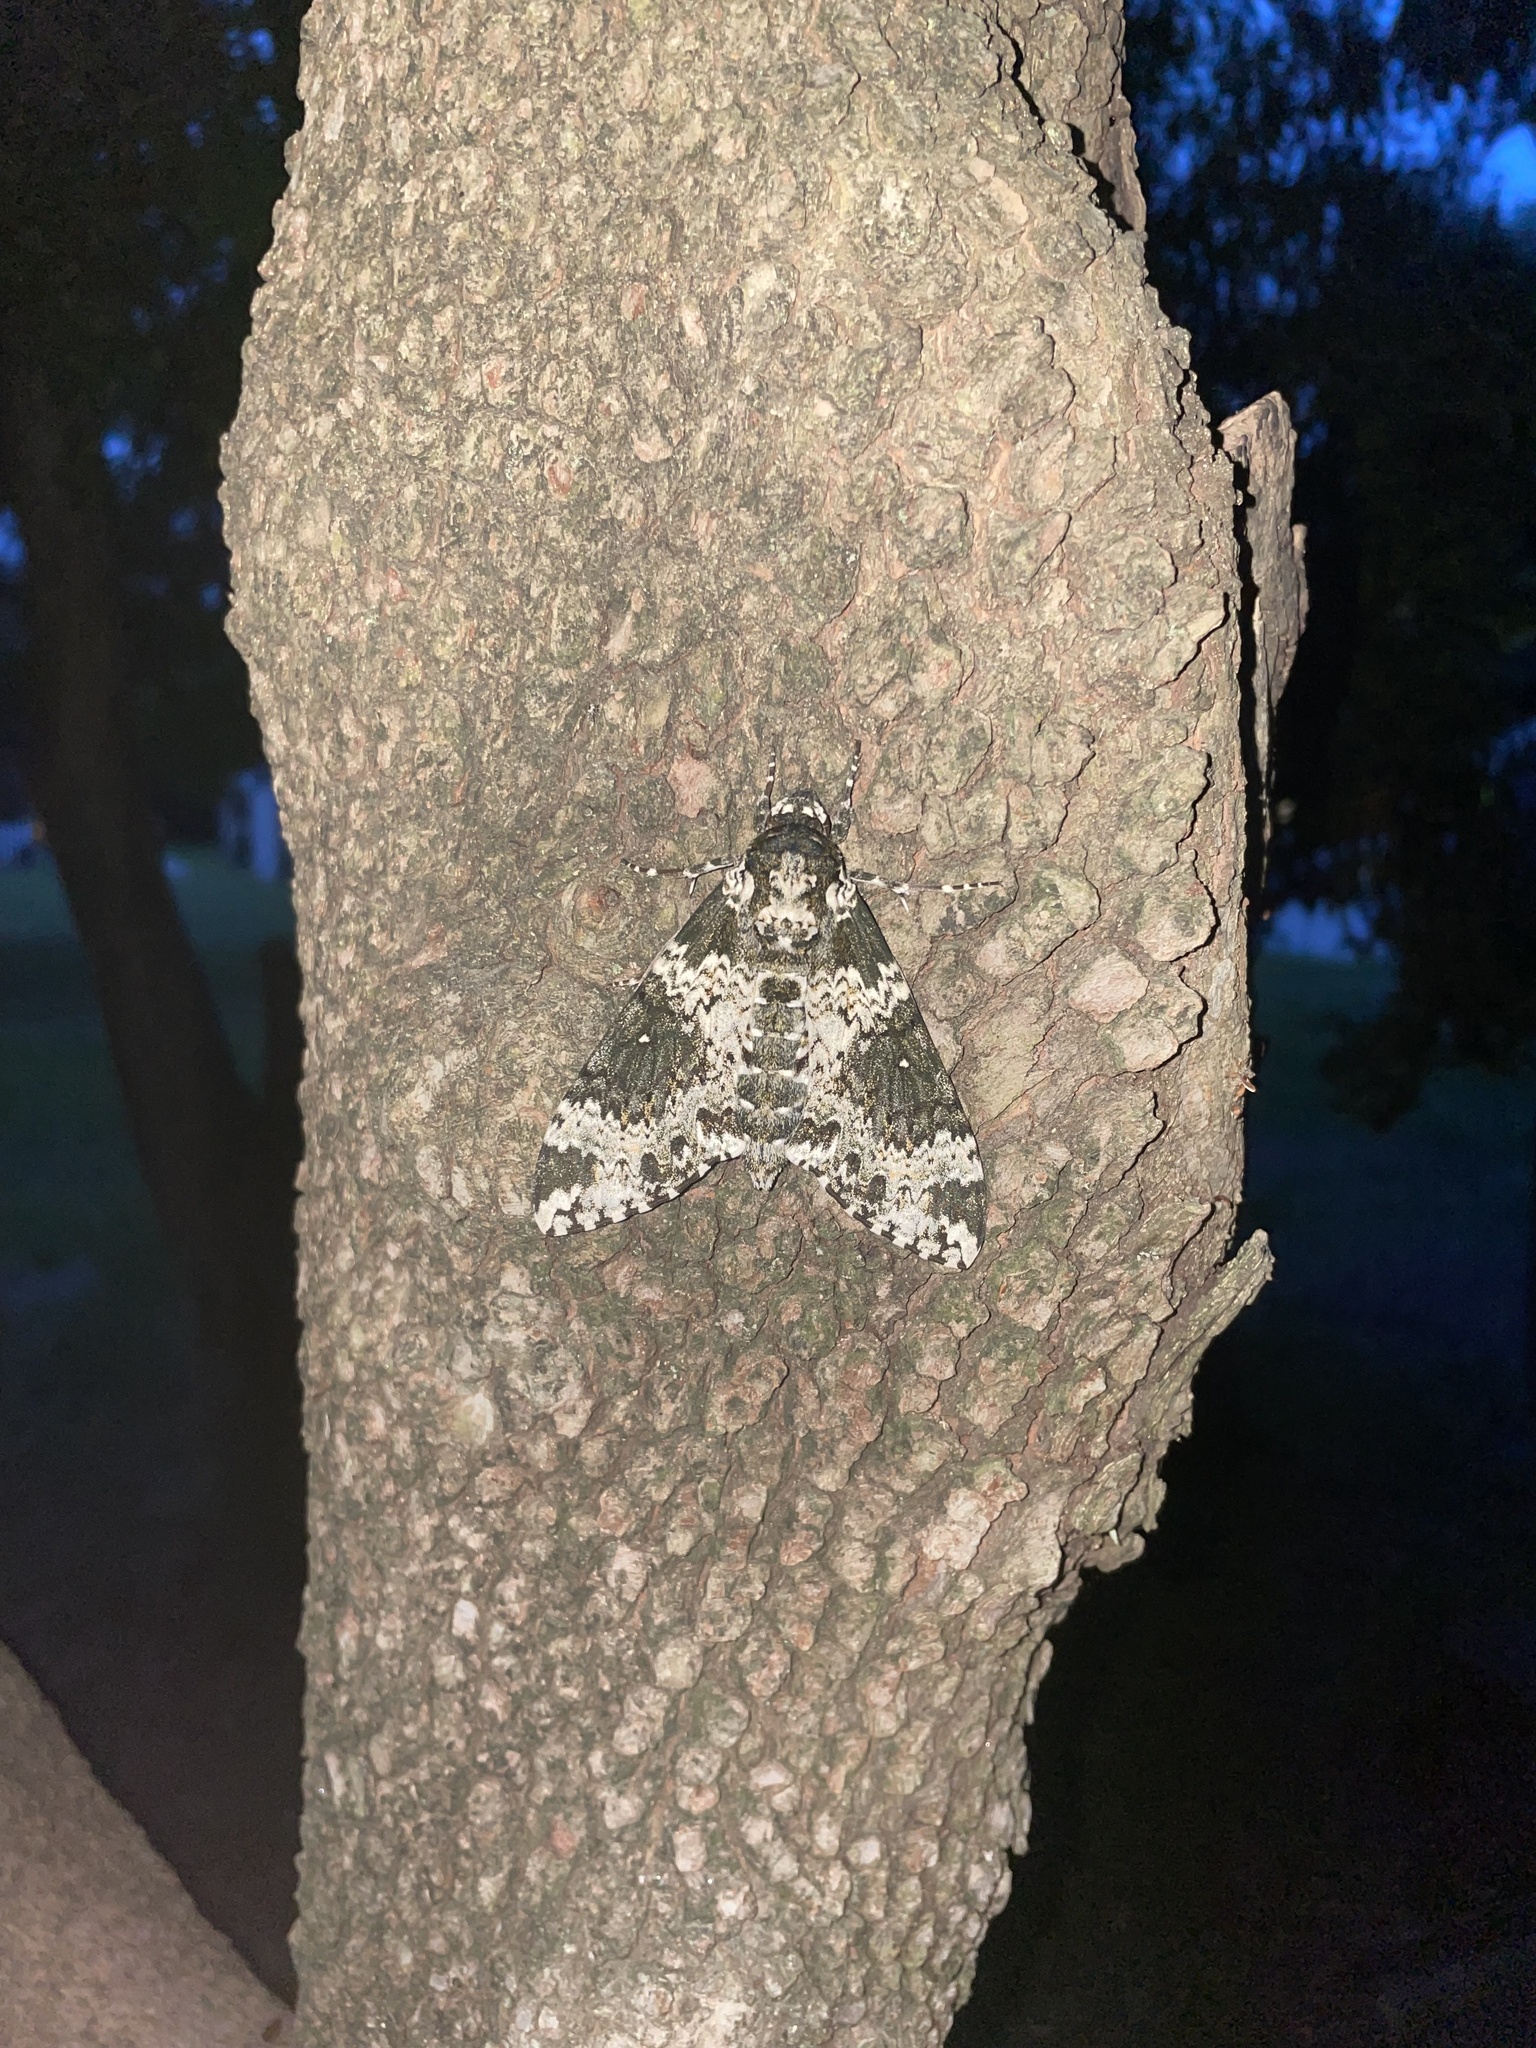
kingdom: Animalia
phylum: Arthropoda
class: Insecta
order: Lepidoptera
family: Sphingidae
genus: Manduca
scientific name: Manduca rustica
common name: Rustic sphinx
